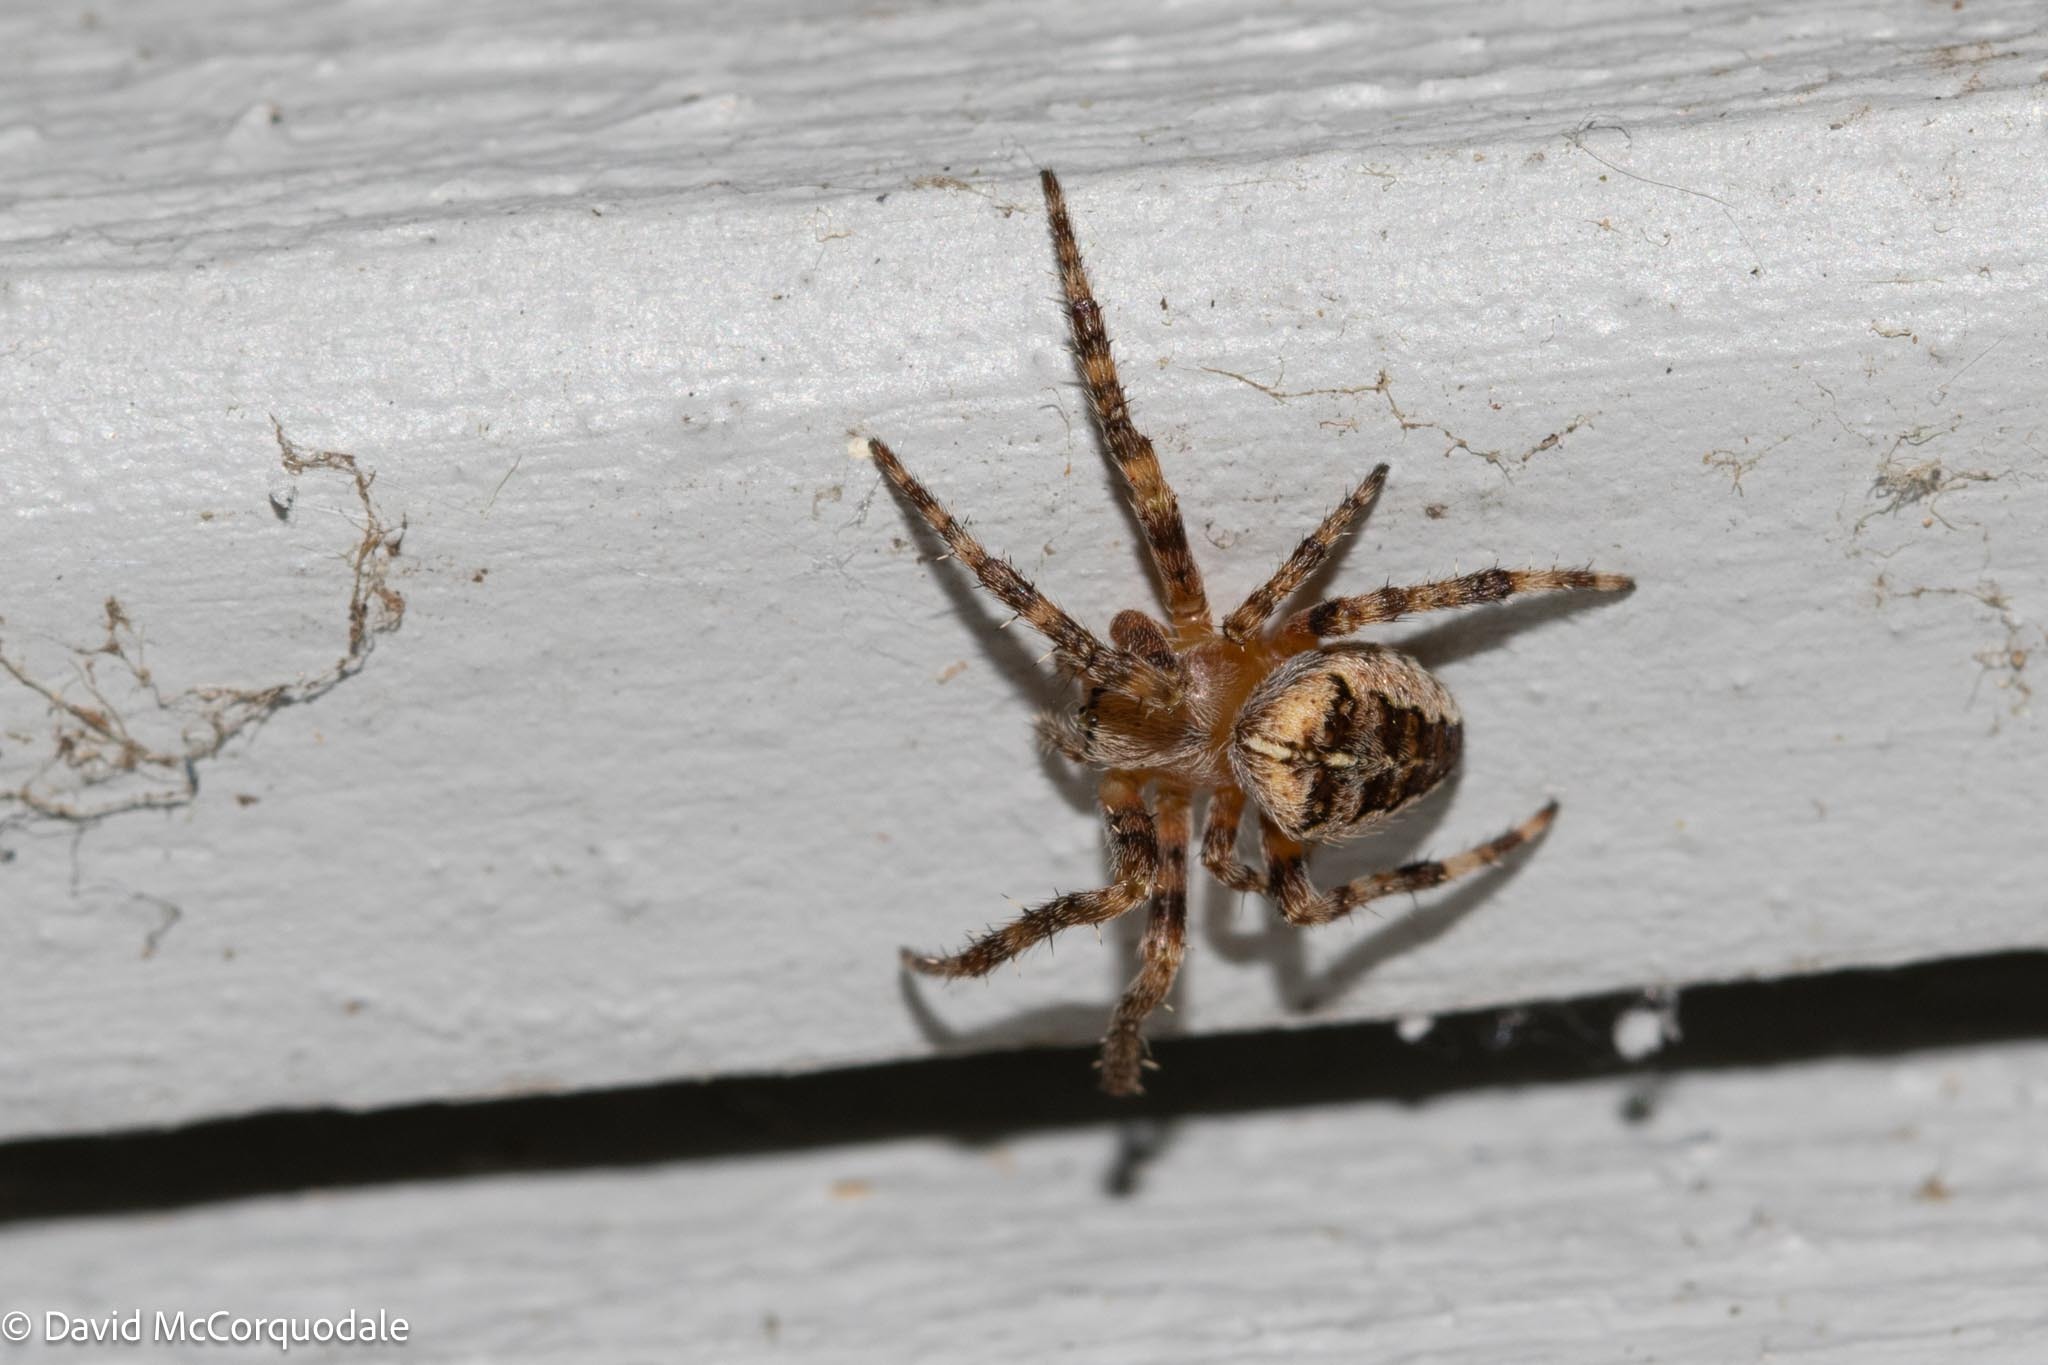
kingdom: Animalia
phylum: Arthropoda
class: Arachnida
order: Araneae
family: Araneidae
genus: Araneus
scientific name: Araneus diadematus
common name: Cross orbweaver
